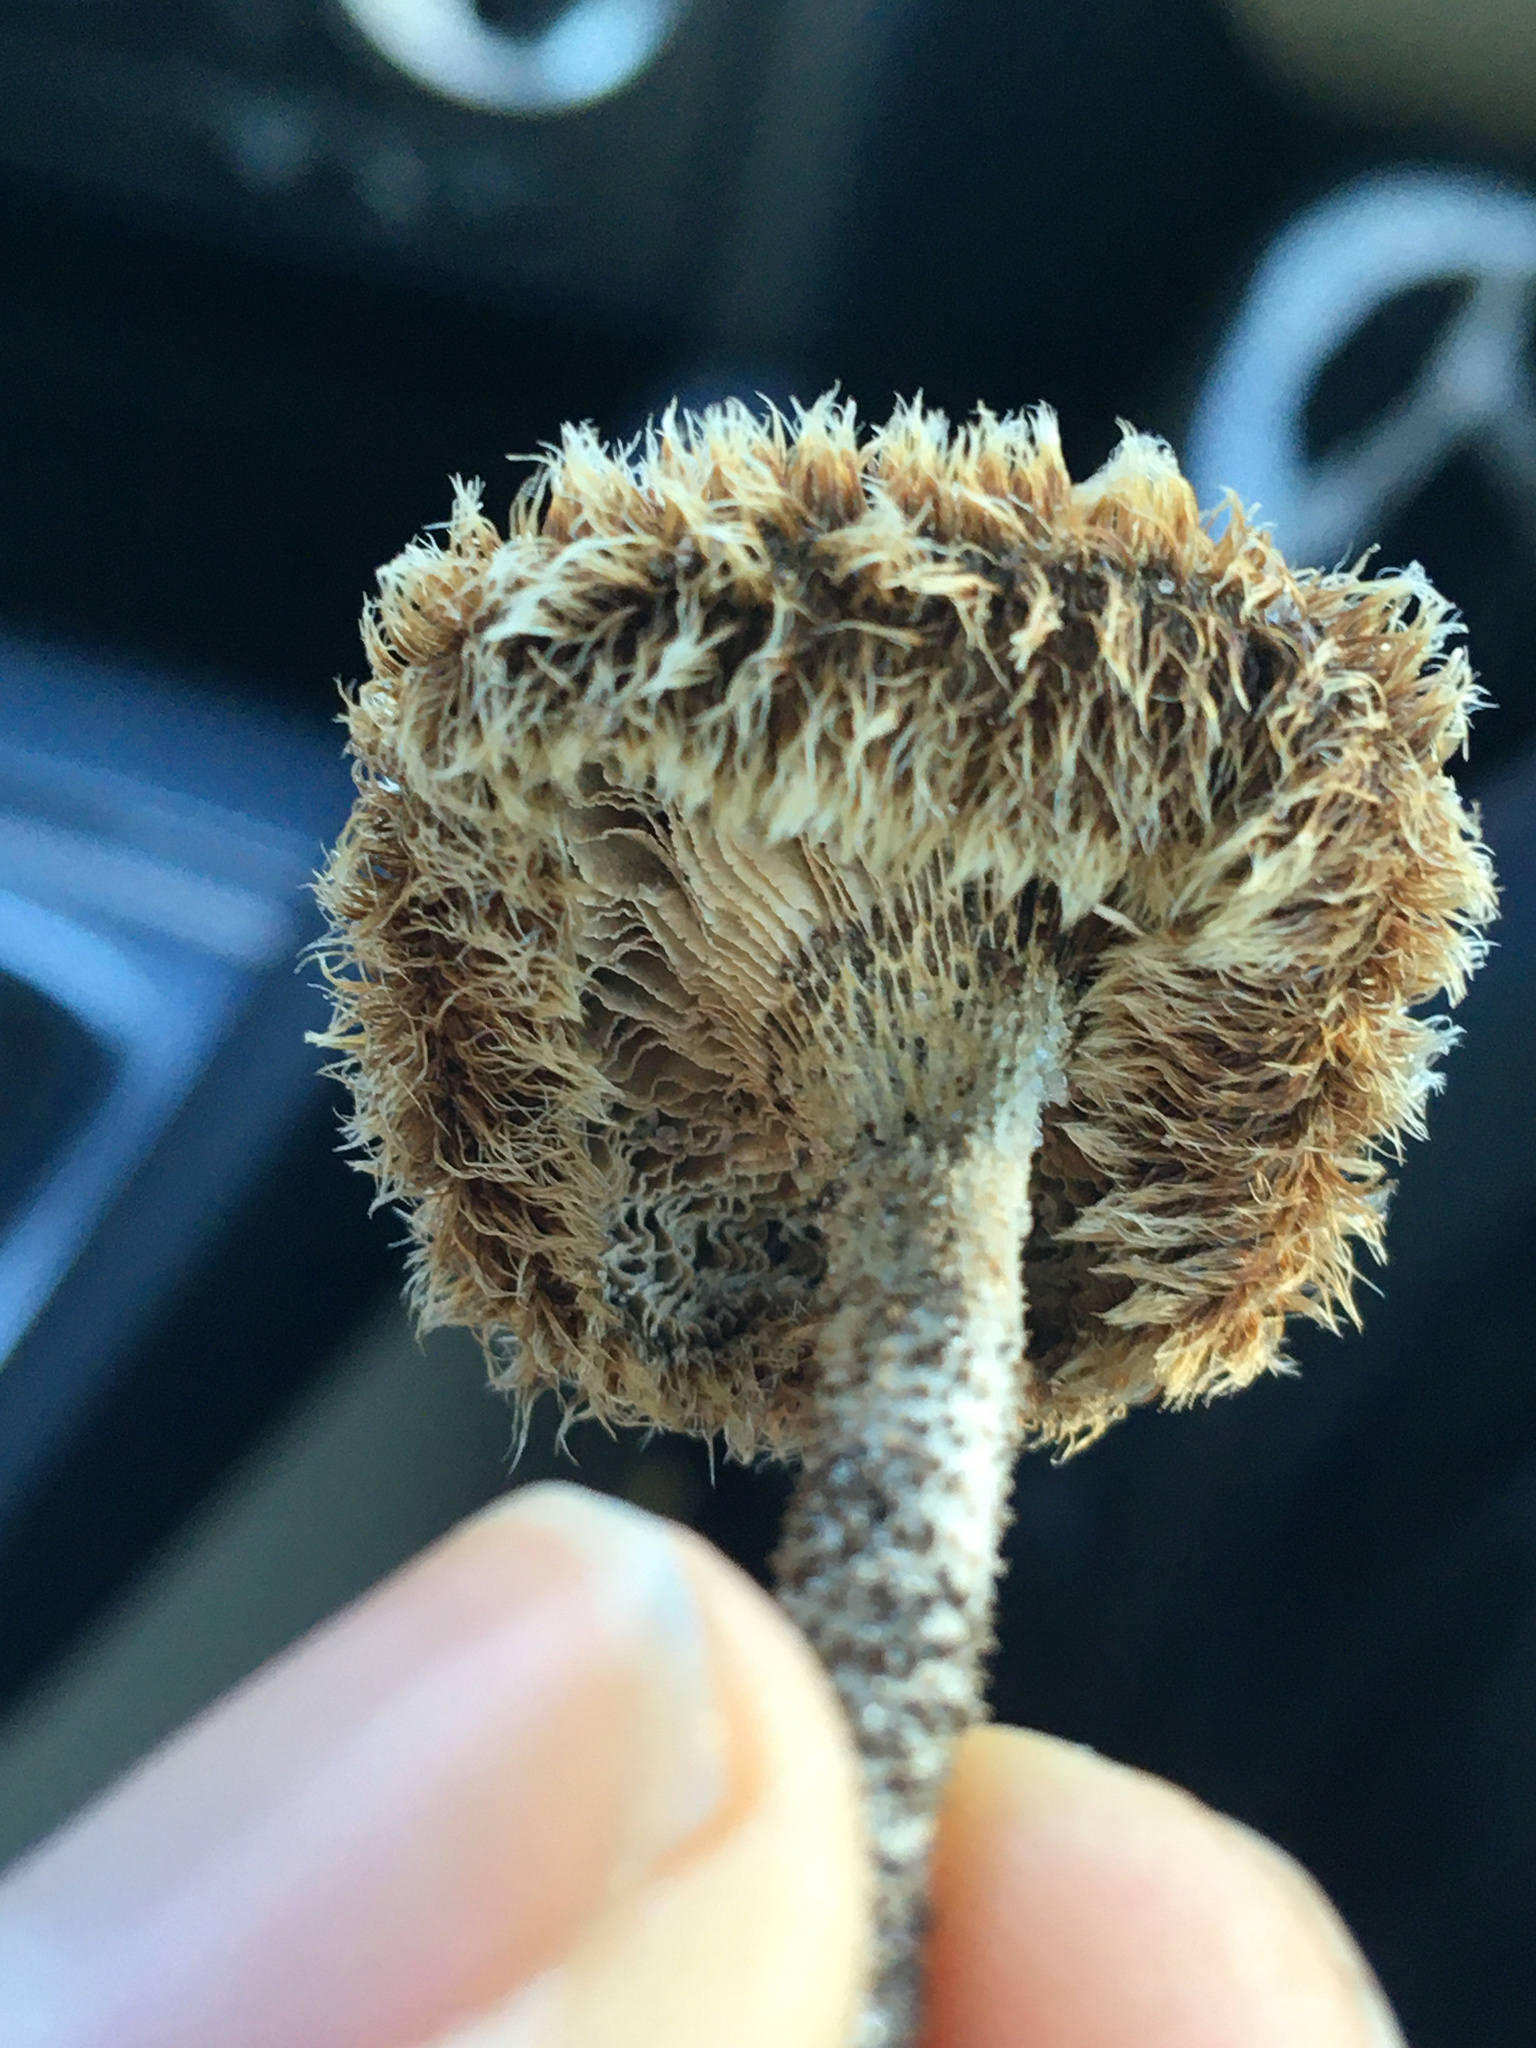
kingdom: Fungi
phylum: Basidiomycota
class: Agaricomycetes
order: Polyporales
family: Polyporaceae
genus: Lentinus
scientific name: Lentinus crinitus
